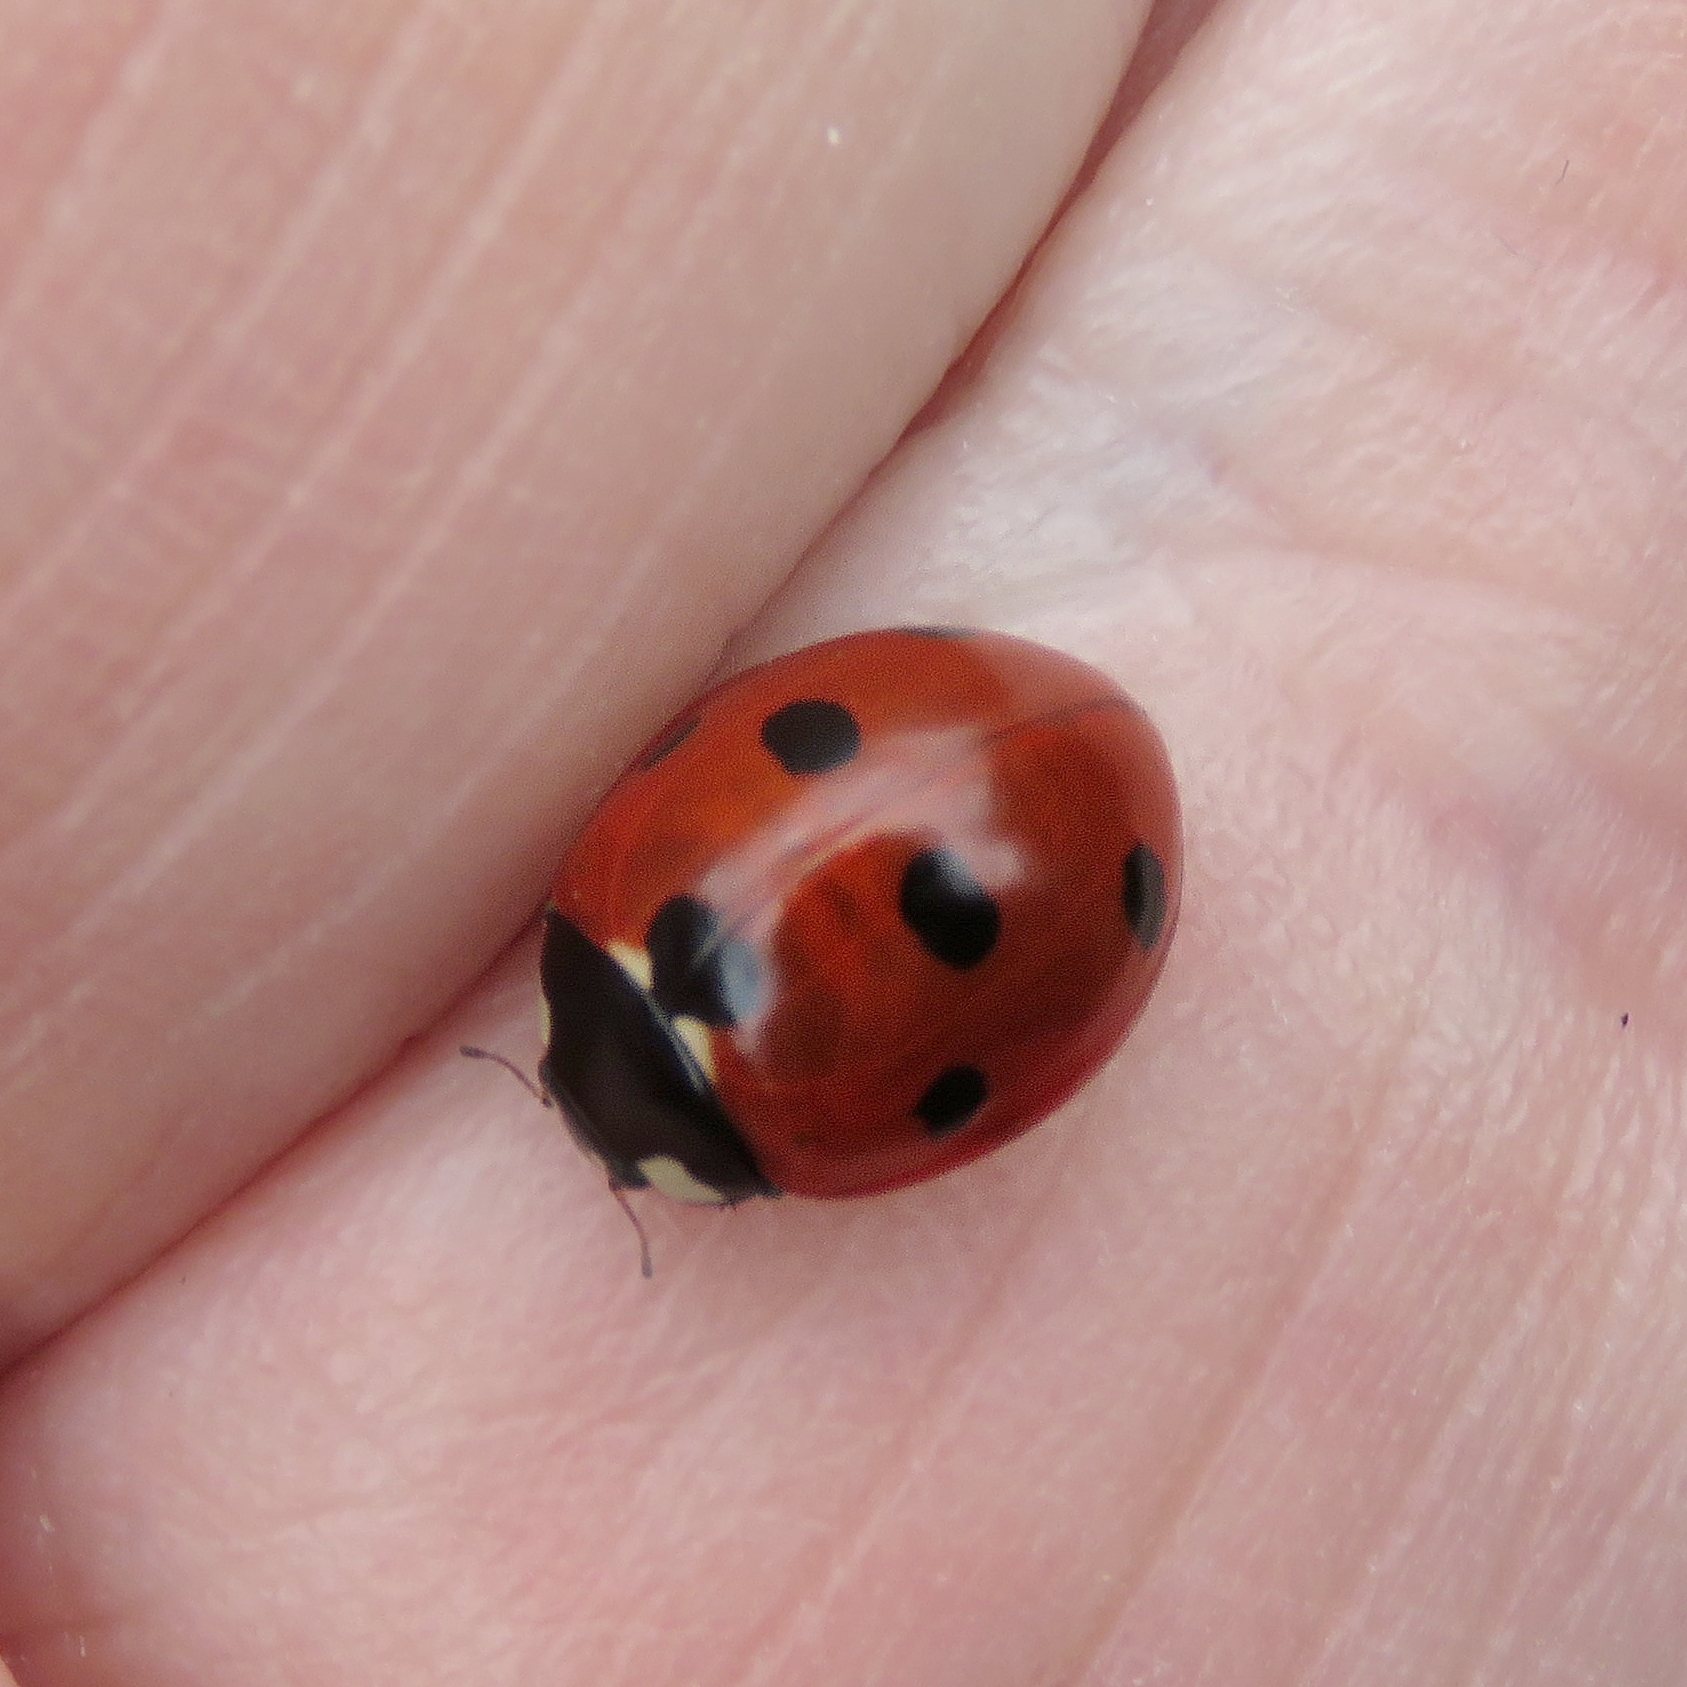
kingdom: Animalia
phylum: Arthropoda
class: Insecta
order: Coleoptera
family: Coccinellidae
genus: Coccinella
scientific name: Coccinella septempunctata
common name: Sevenspotted lady beetle
